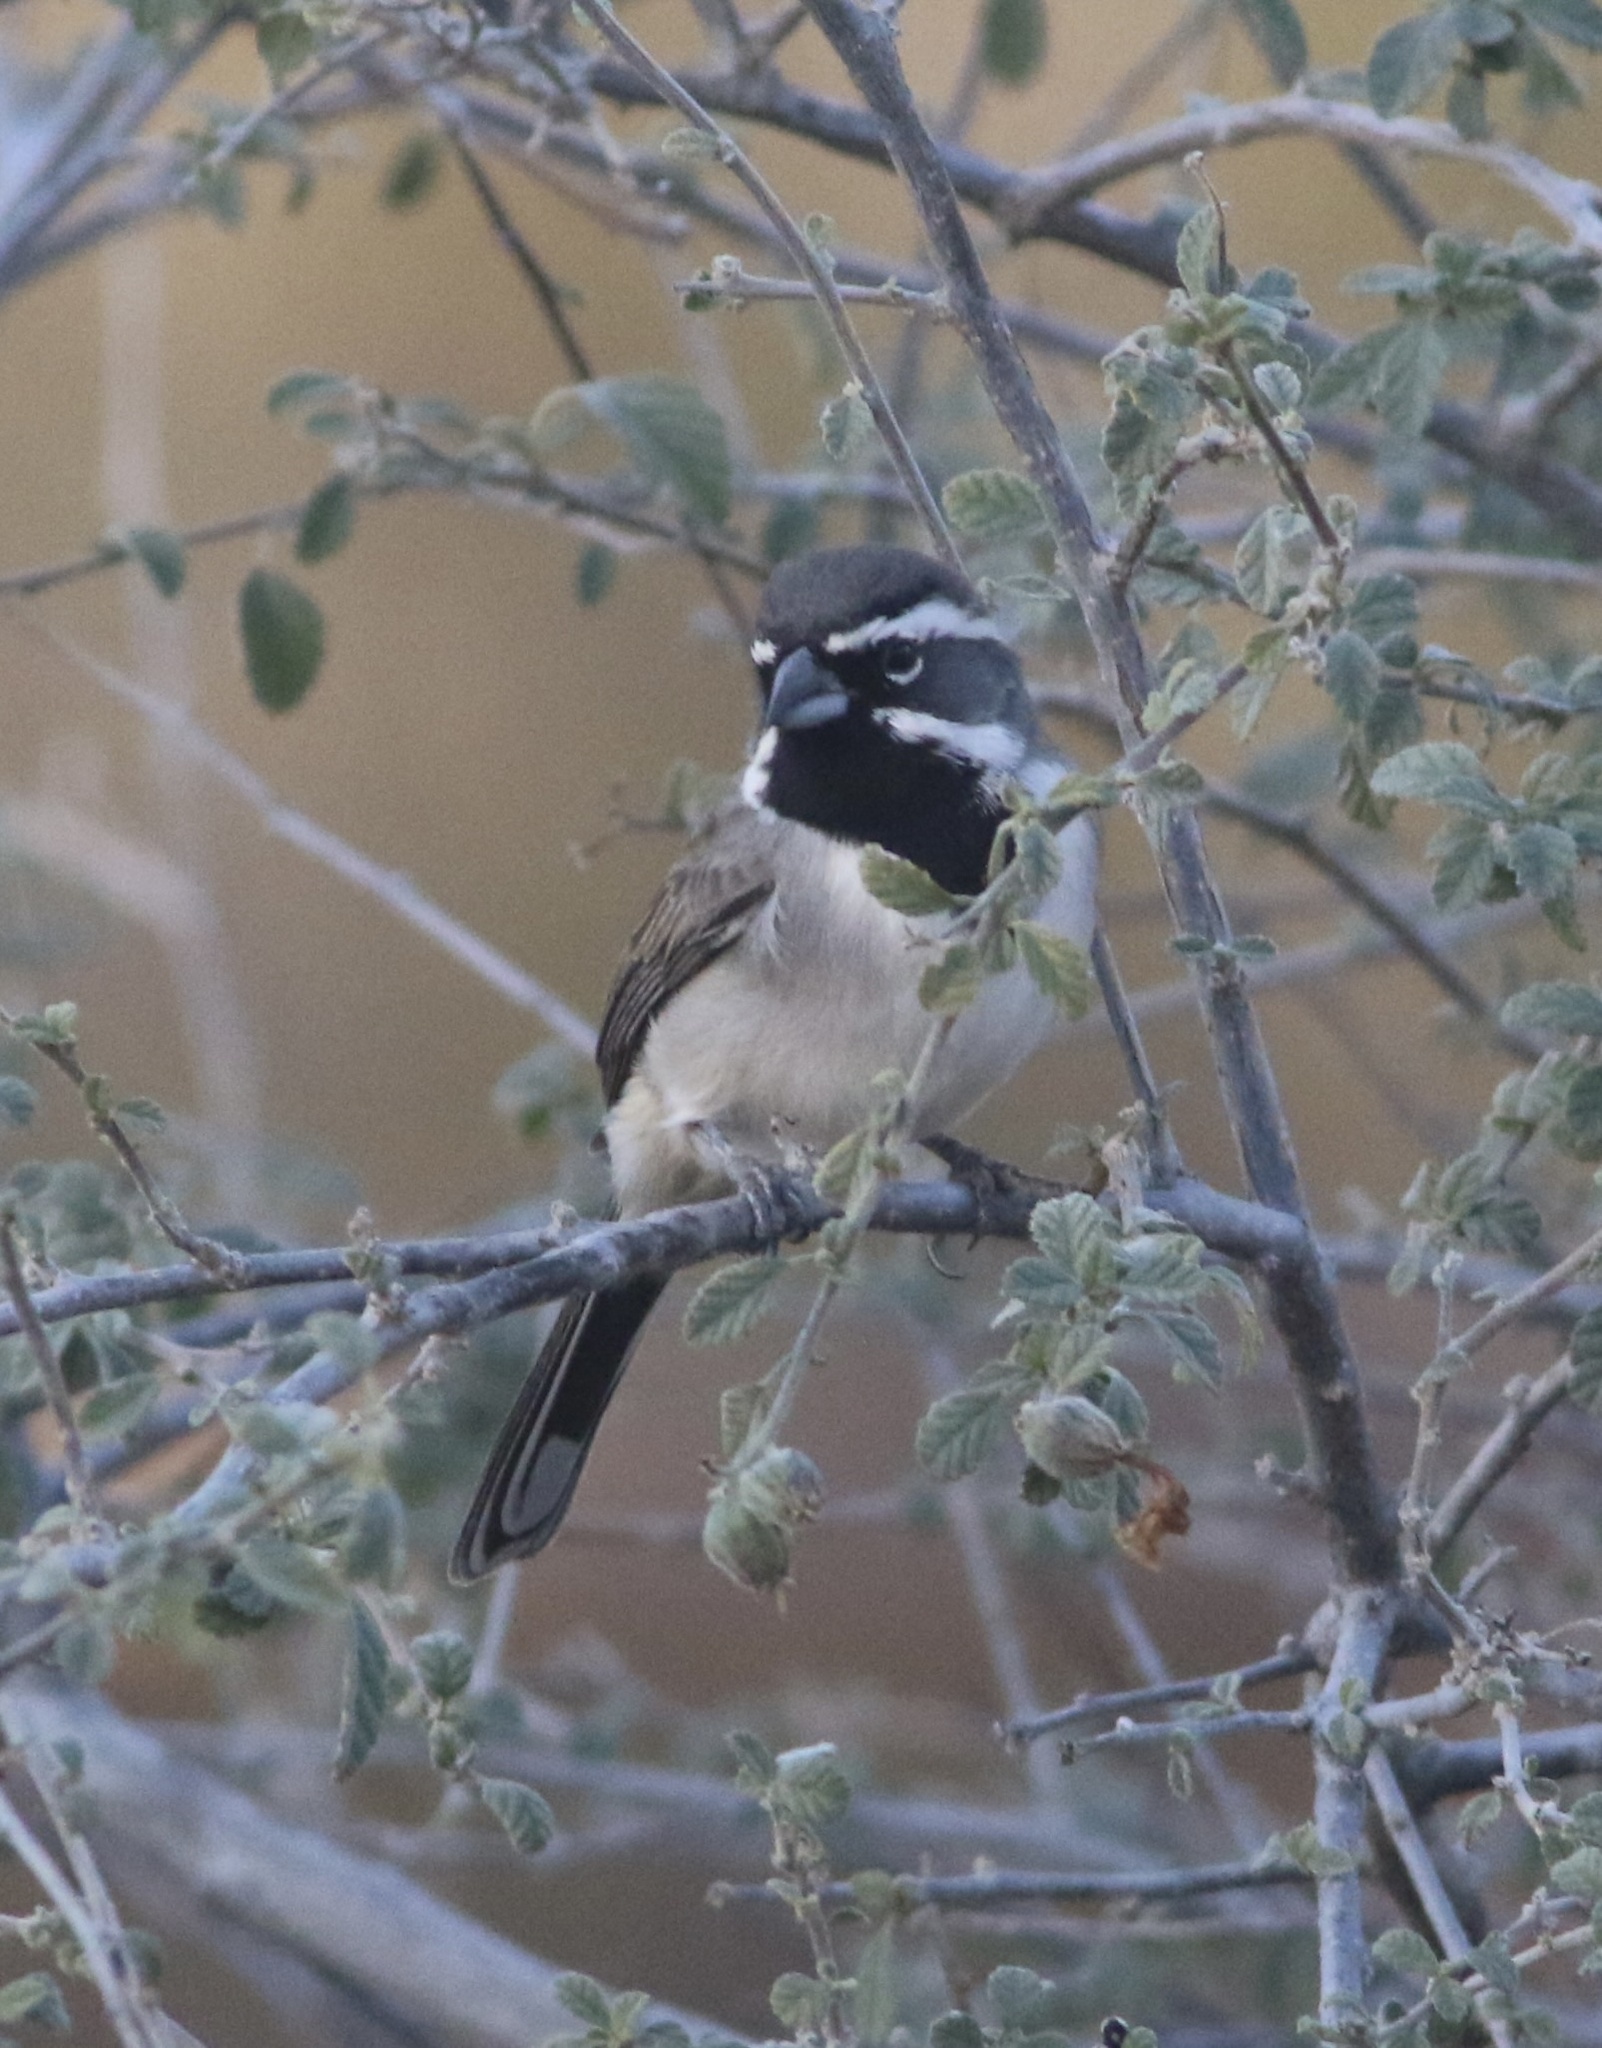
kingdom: Animalia
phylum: Chordata
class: Aves
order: Passeriformes
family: Passerellidae
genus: Amphispiza
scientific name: Amphispiza bilineata
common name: Black-throated sparrow
